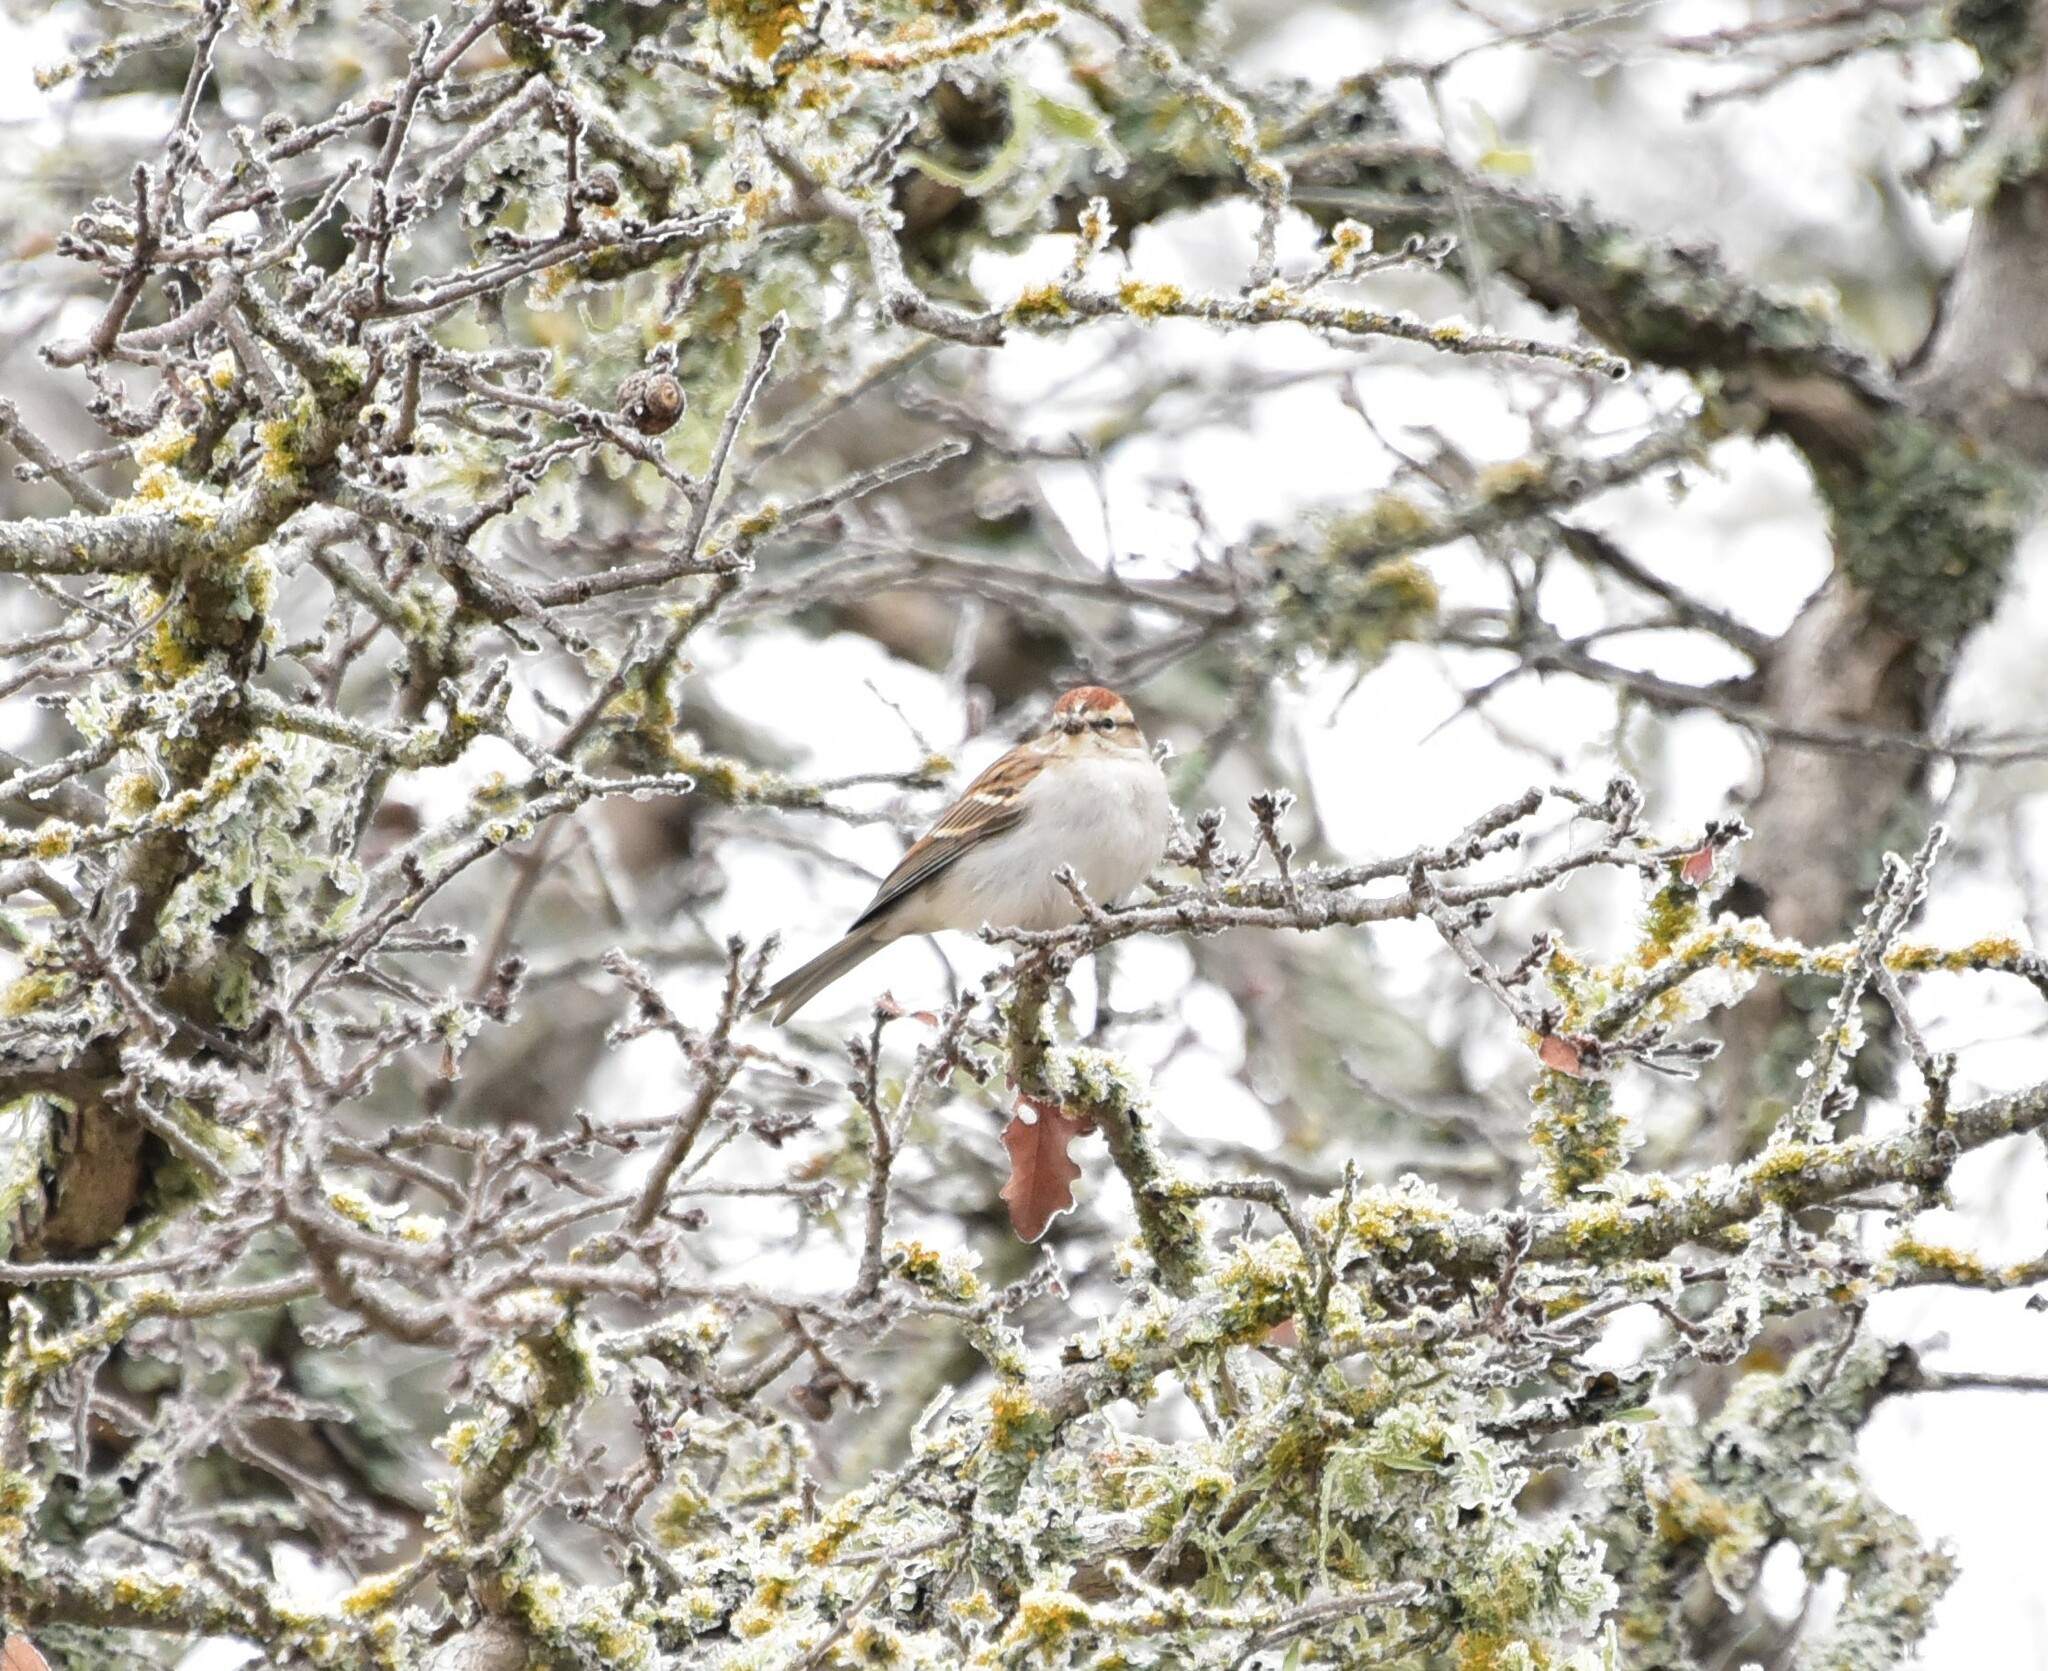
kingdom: Animalia
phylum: Chordata
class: Aves
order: Passeriformes
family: Passerellidae
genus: Spizella
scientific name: Spizella passerina
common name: Chipping sparrow
